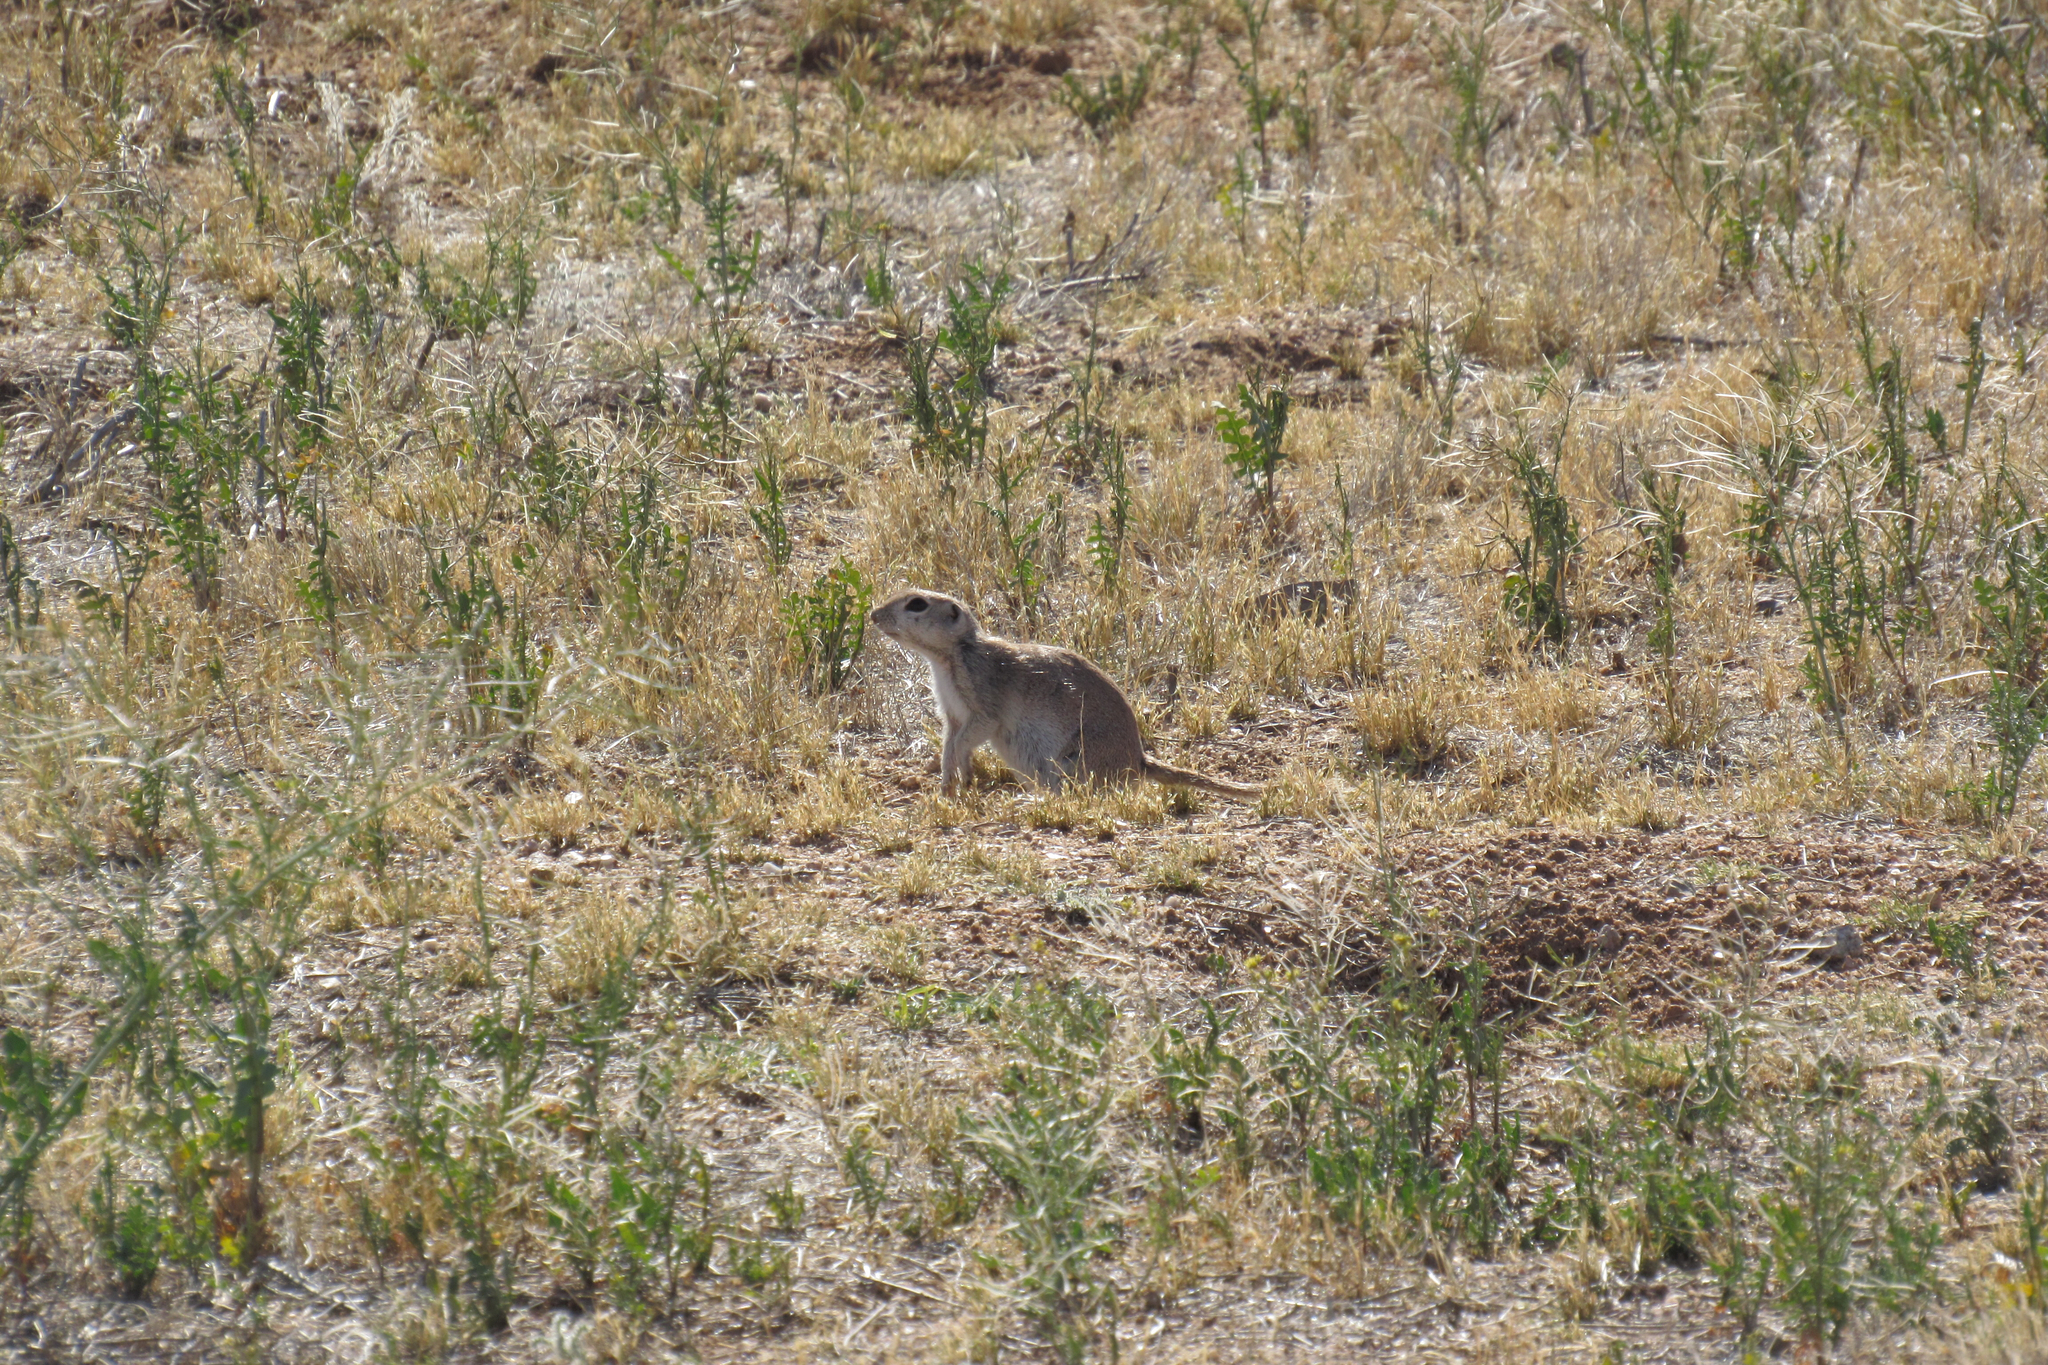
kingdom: Animalia
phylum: Chordata
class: Mammalia
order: Rodentia
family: Sciuridae
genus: Xerospermophilus
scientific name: Xerospermophilus tereticaudus
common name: Round-tailed ground squirrel
